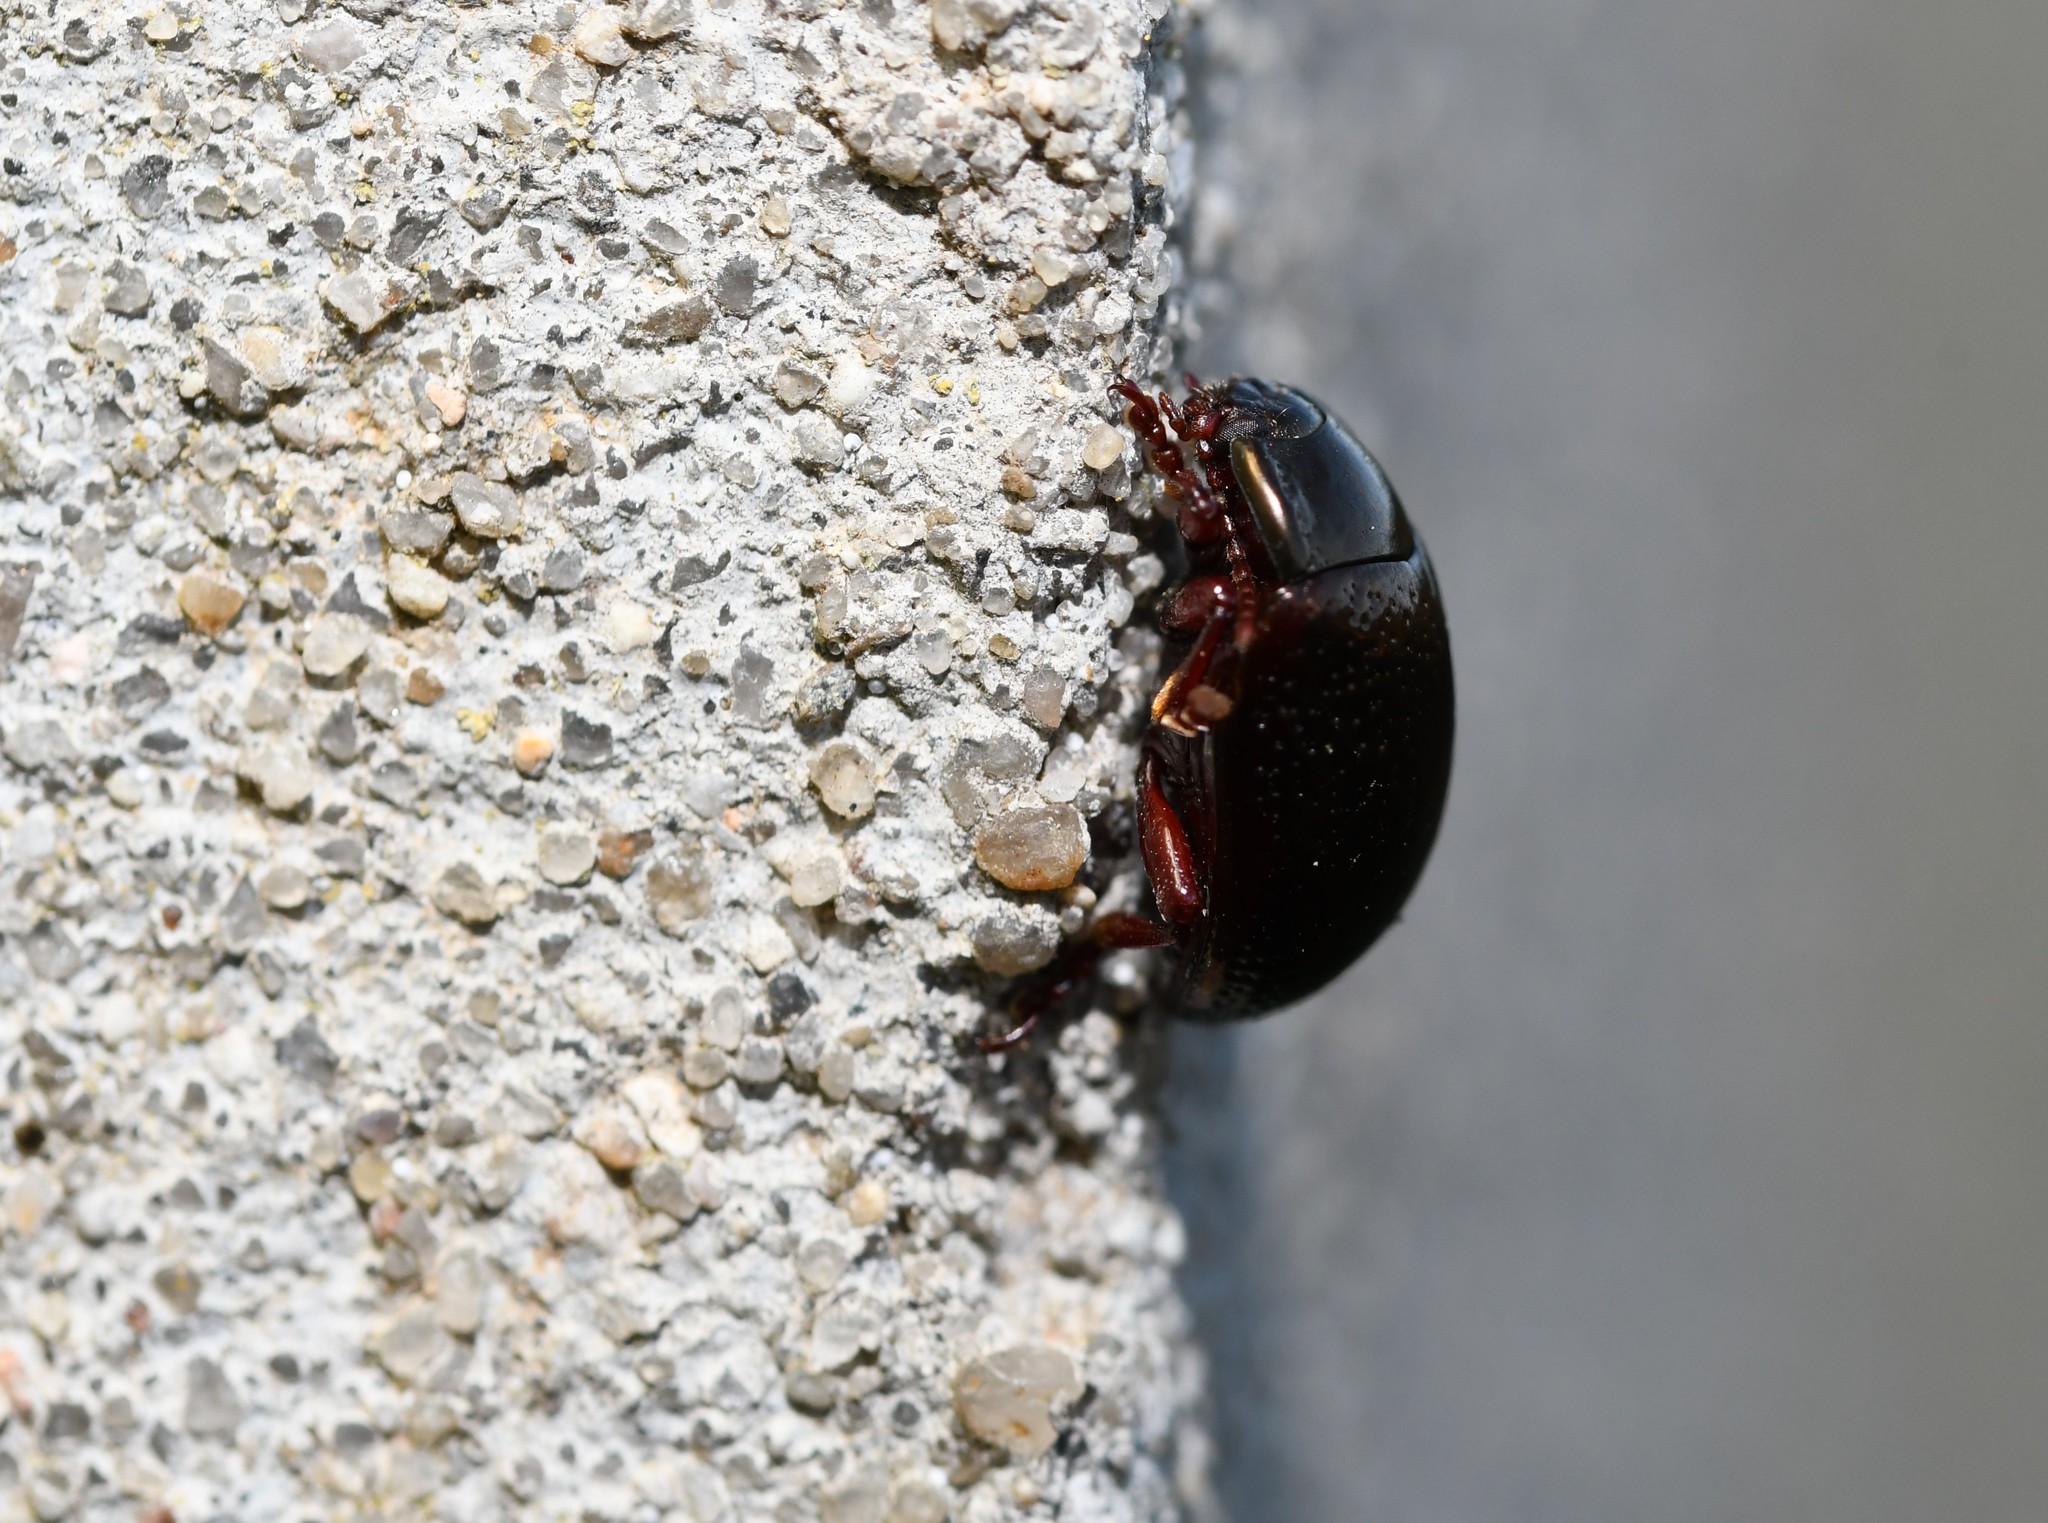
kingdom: Animalia
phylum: Arthropoda
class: Insecta
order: Coleoptera
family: Chrysomelidae
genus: Chrysolina
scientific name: Chrysolina bankii
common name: Leaf beetle
